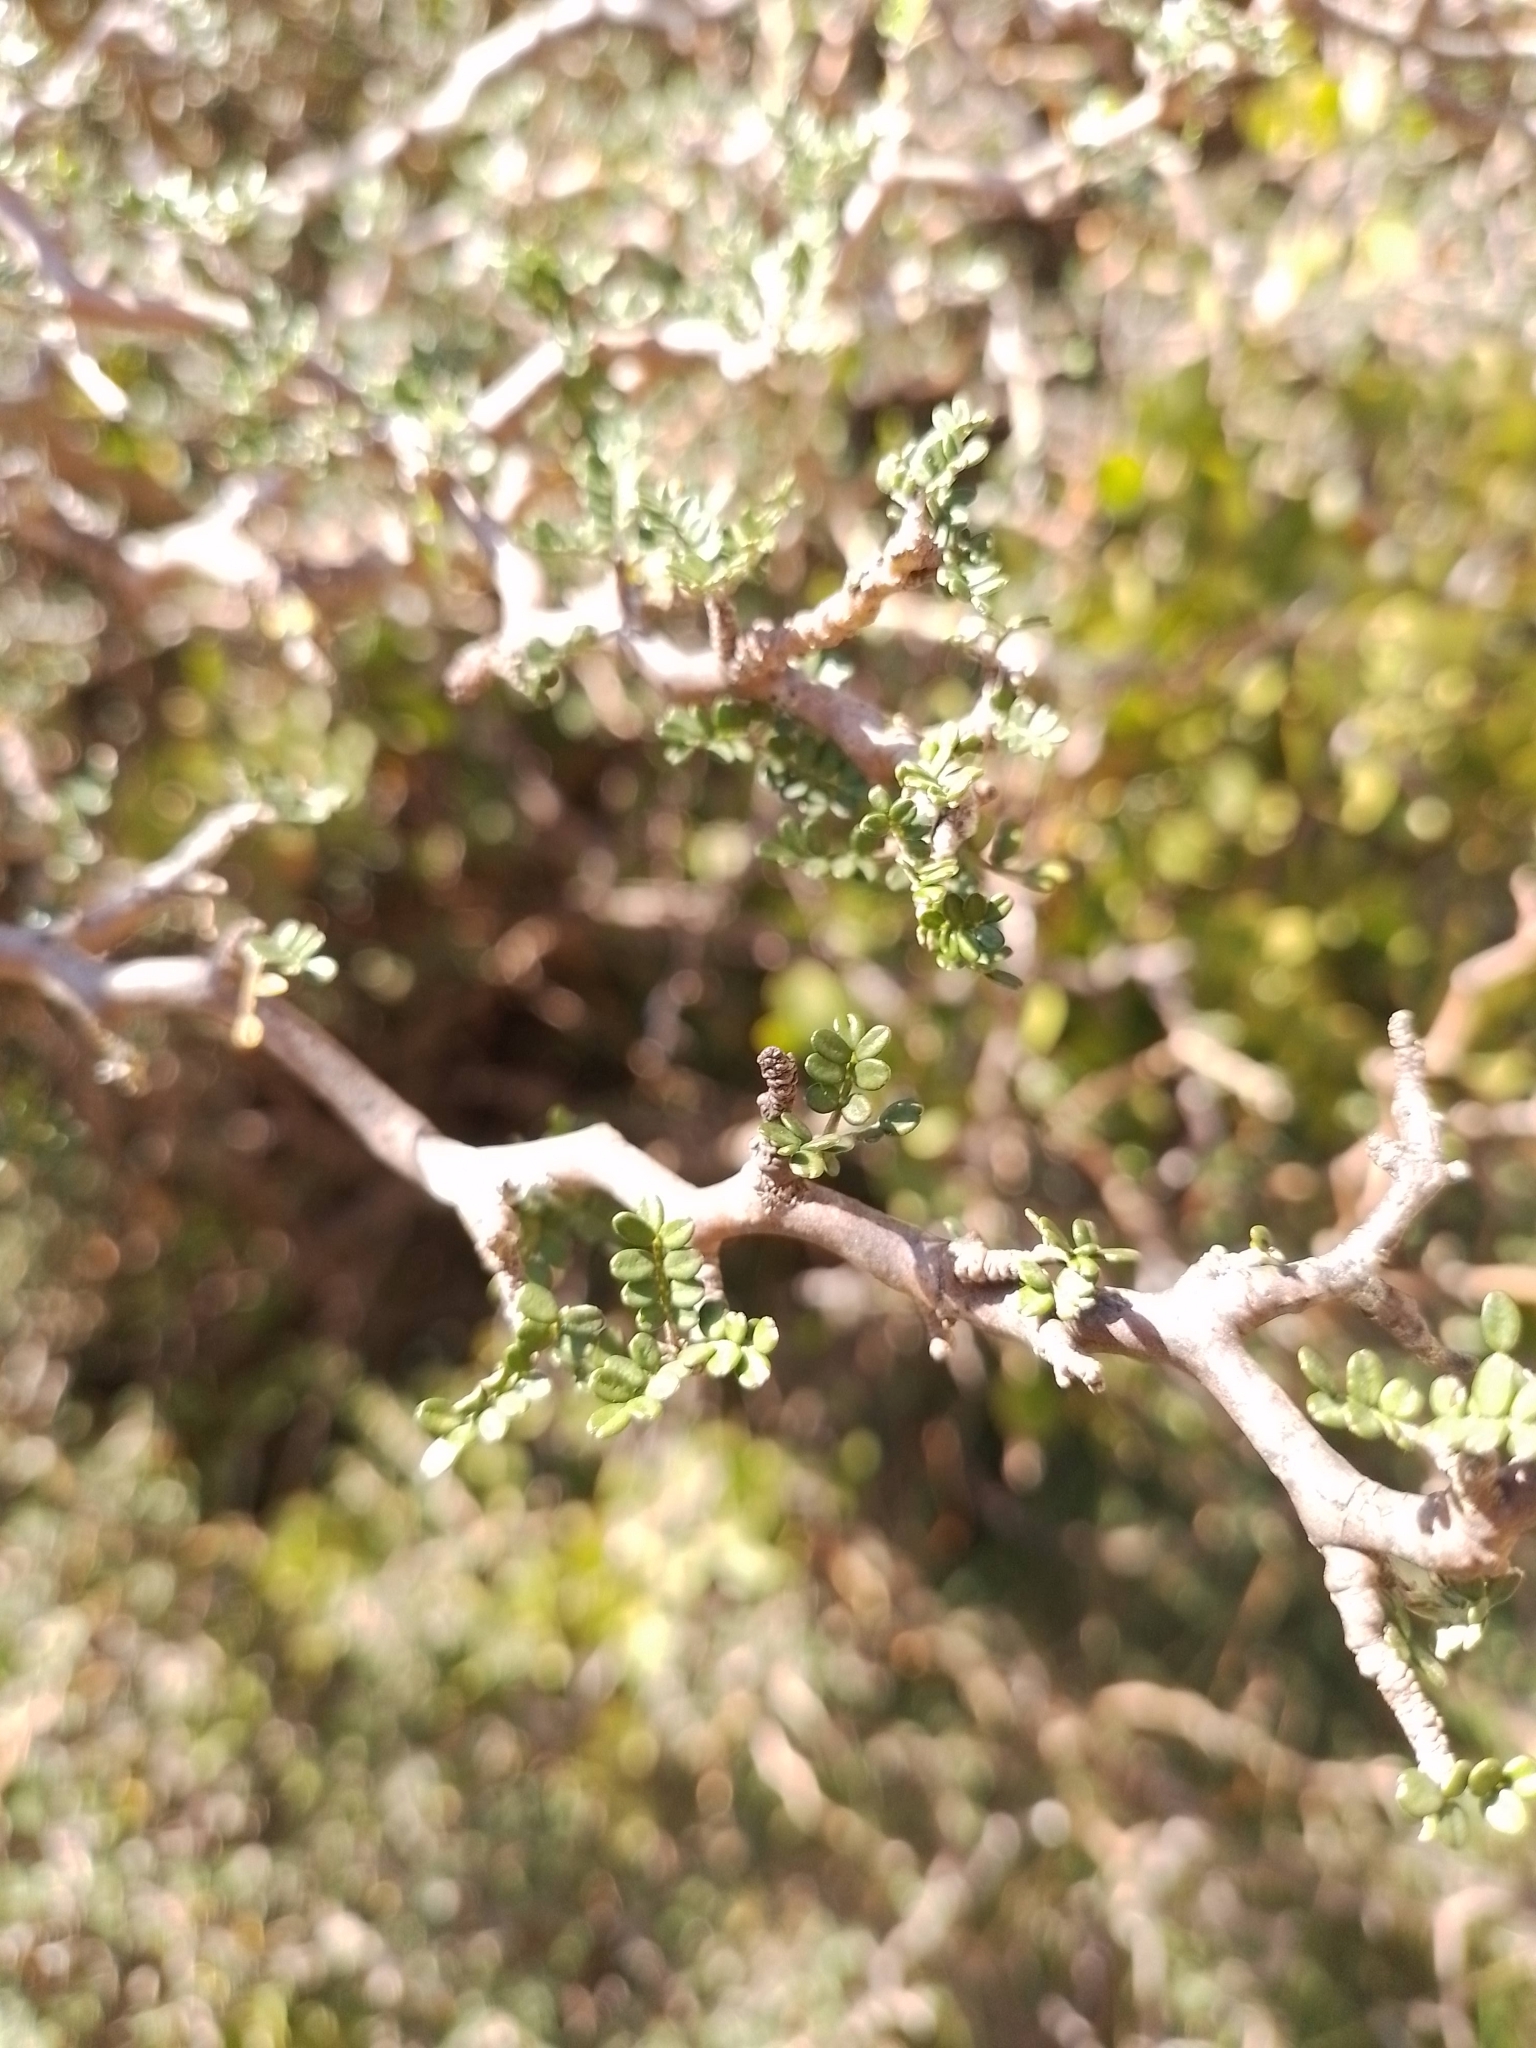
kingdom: Plantae
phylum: Tracheophyta
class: Magnoliopsida
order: Fabales
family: Fabaceae
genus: Sophora
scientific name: Sophora prostrata
